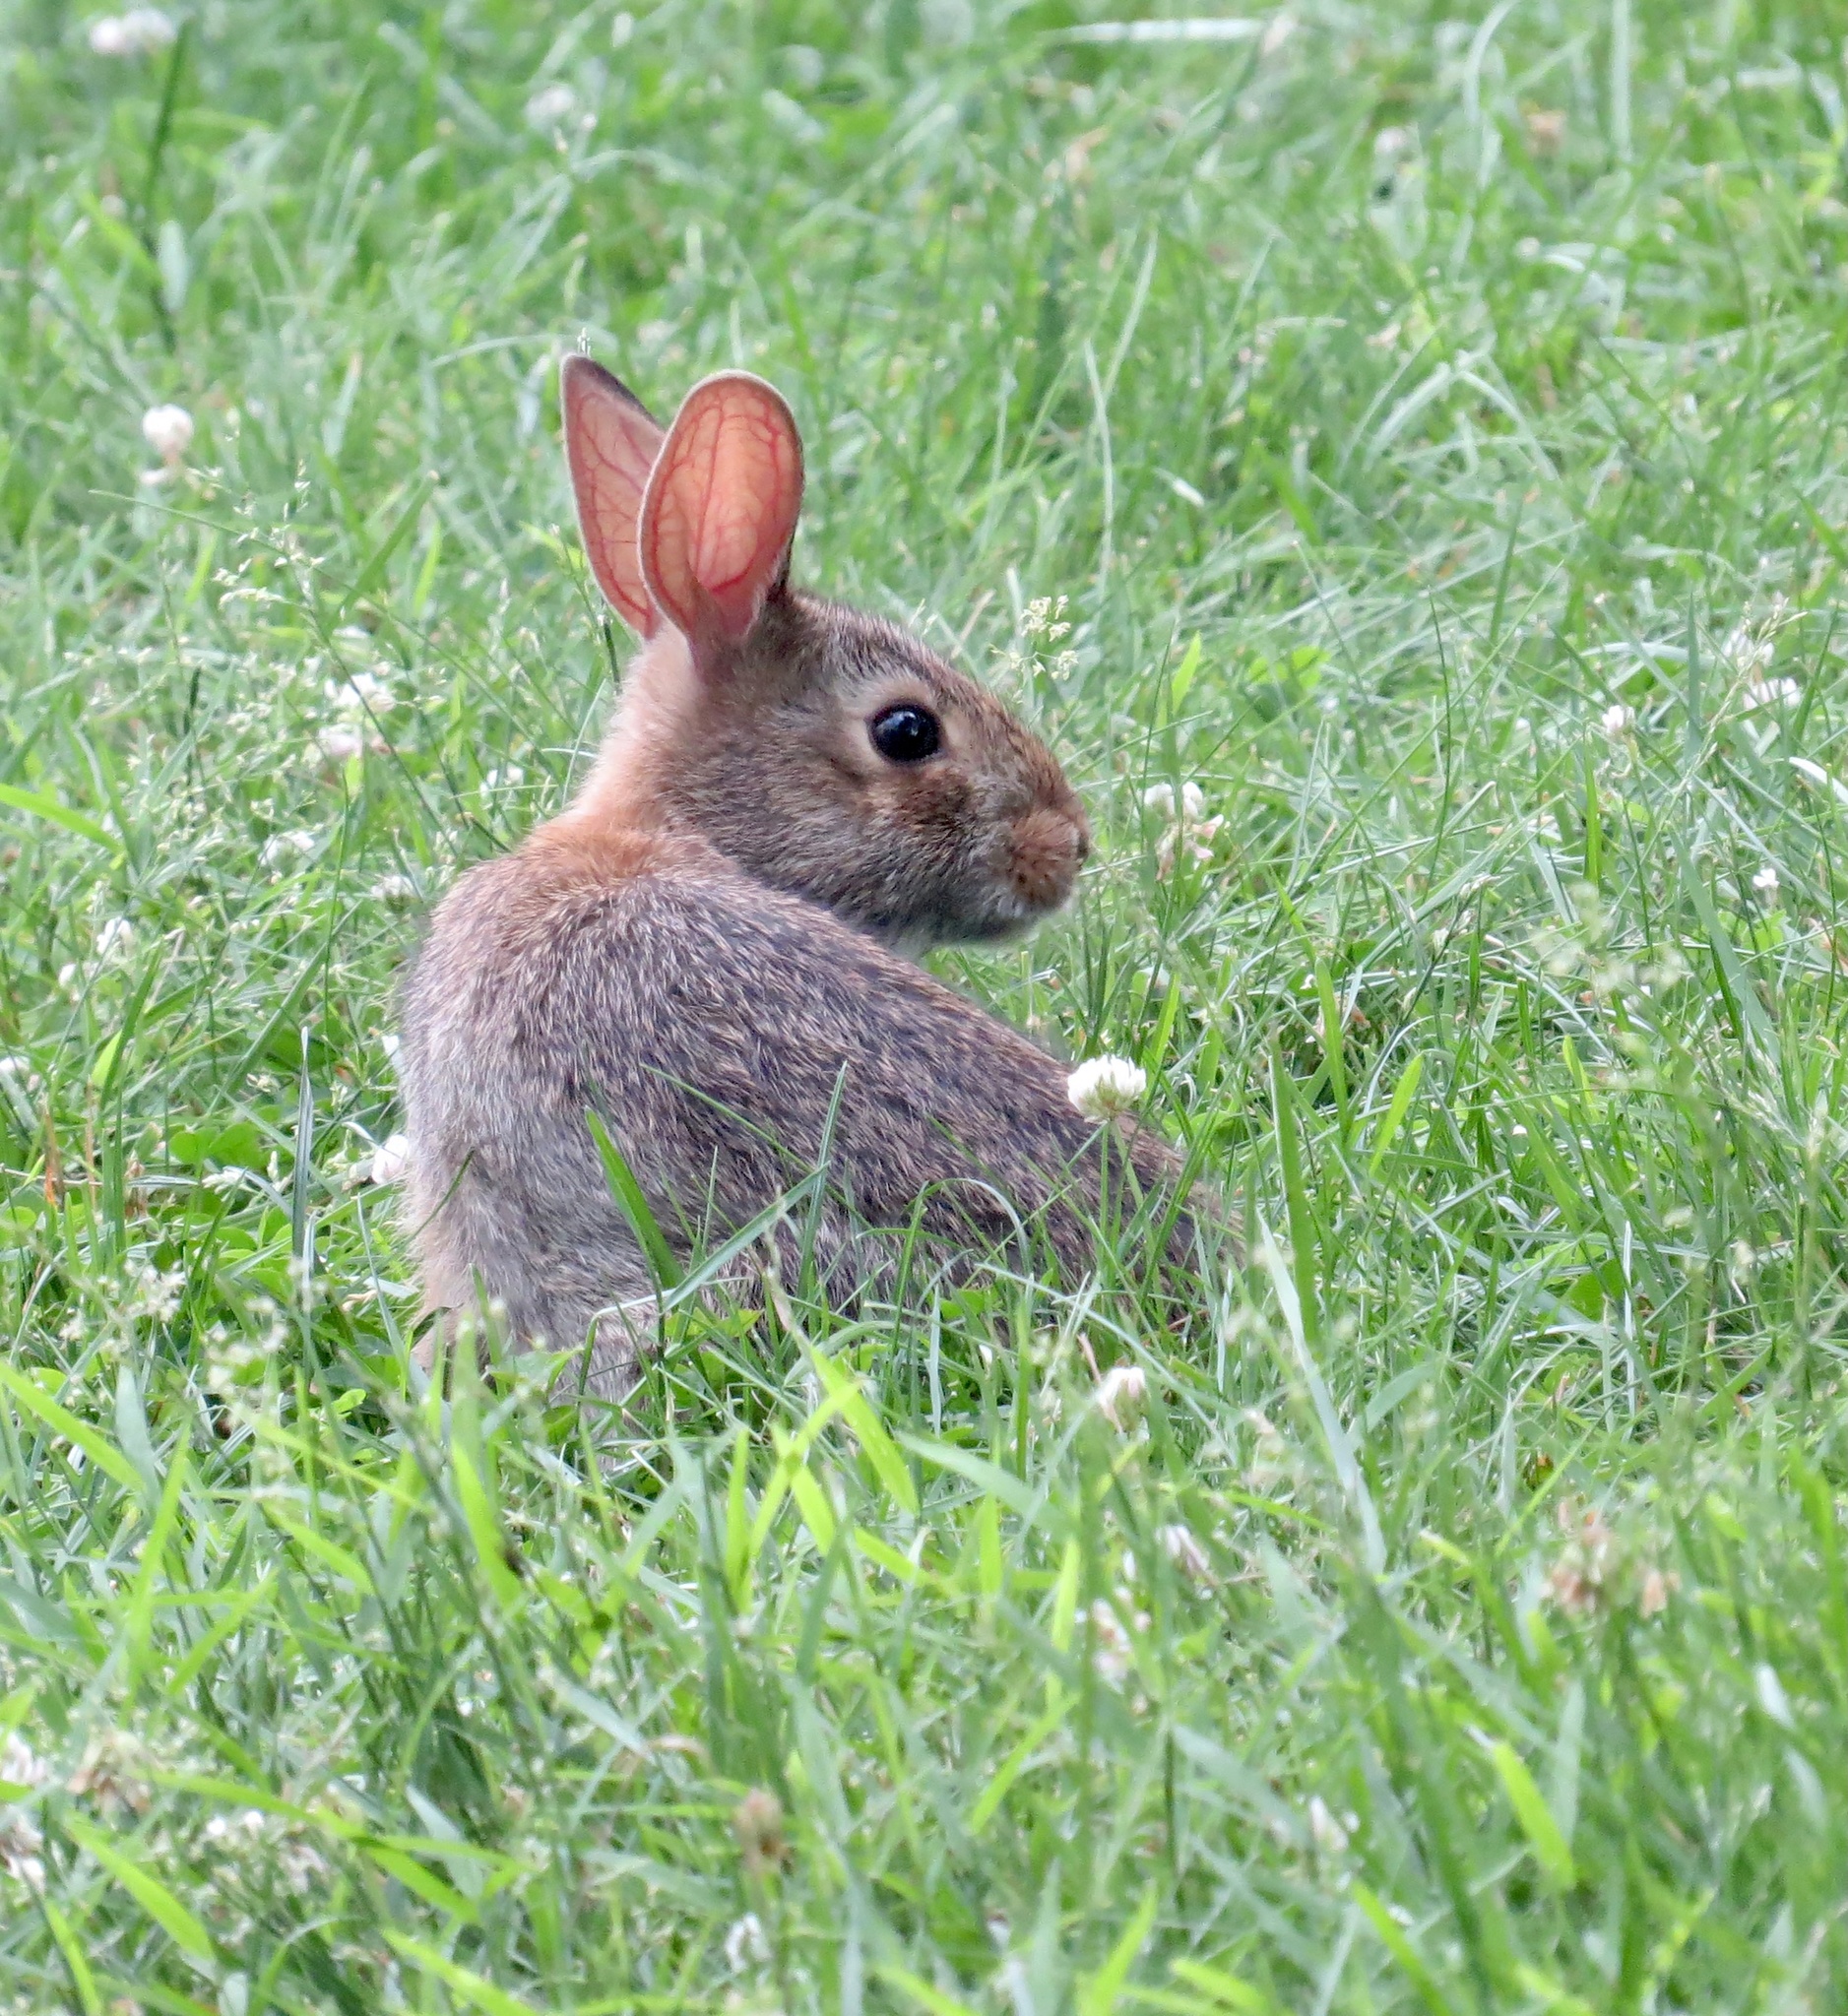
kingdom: Animalia
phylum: Chordata
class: Mammalia
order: Lagomorpha
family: Leporidae
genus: Sylvilagus
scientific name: Sylvilagus floridanus
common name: Eastern cottontail
